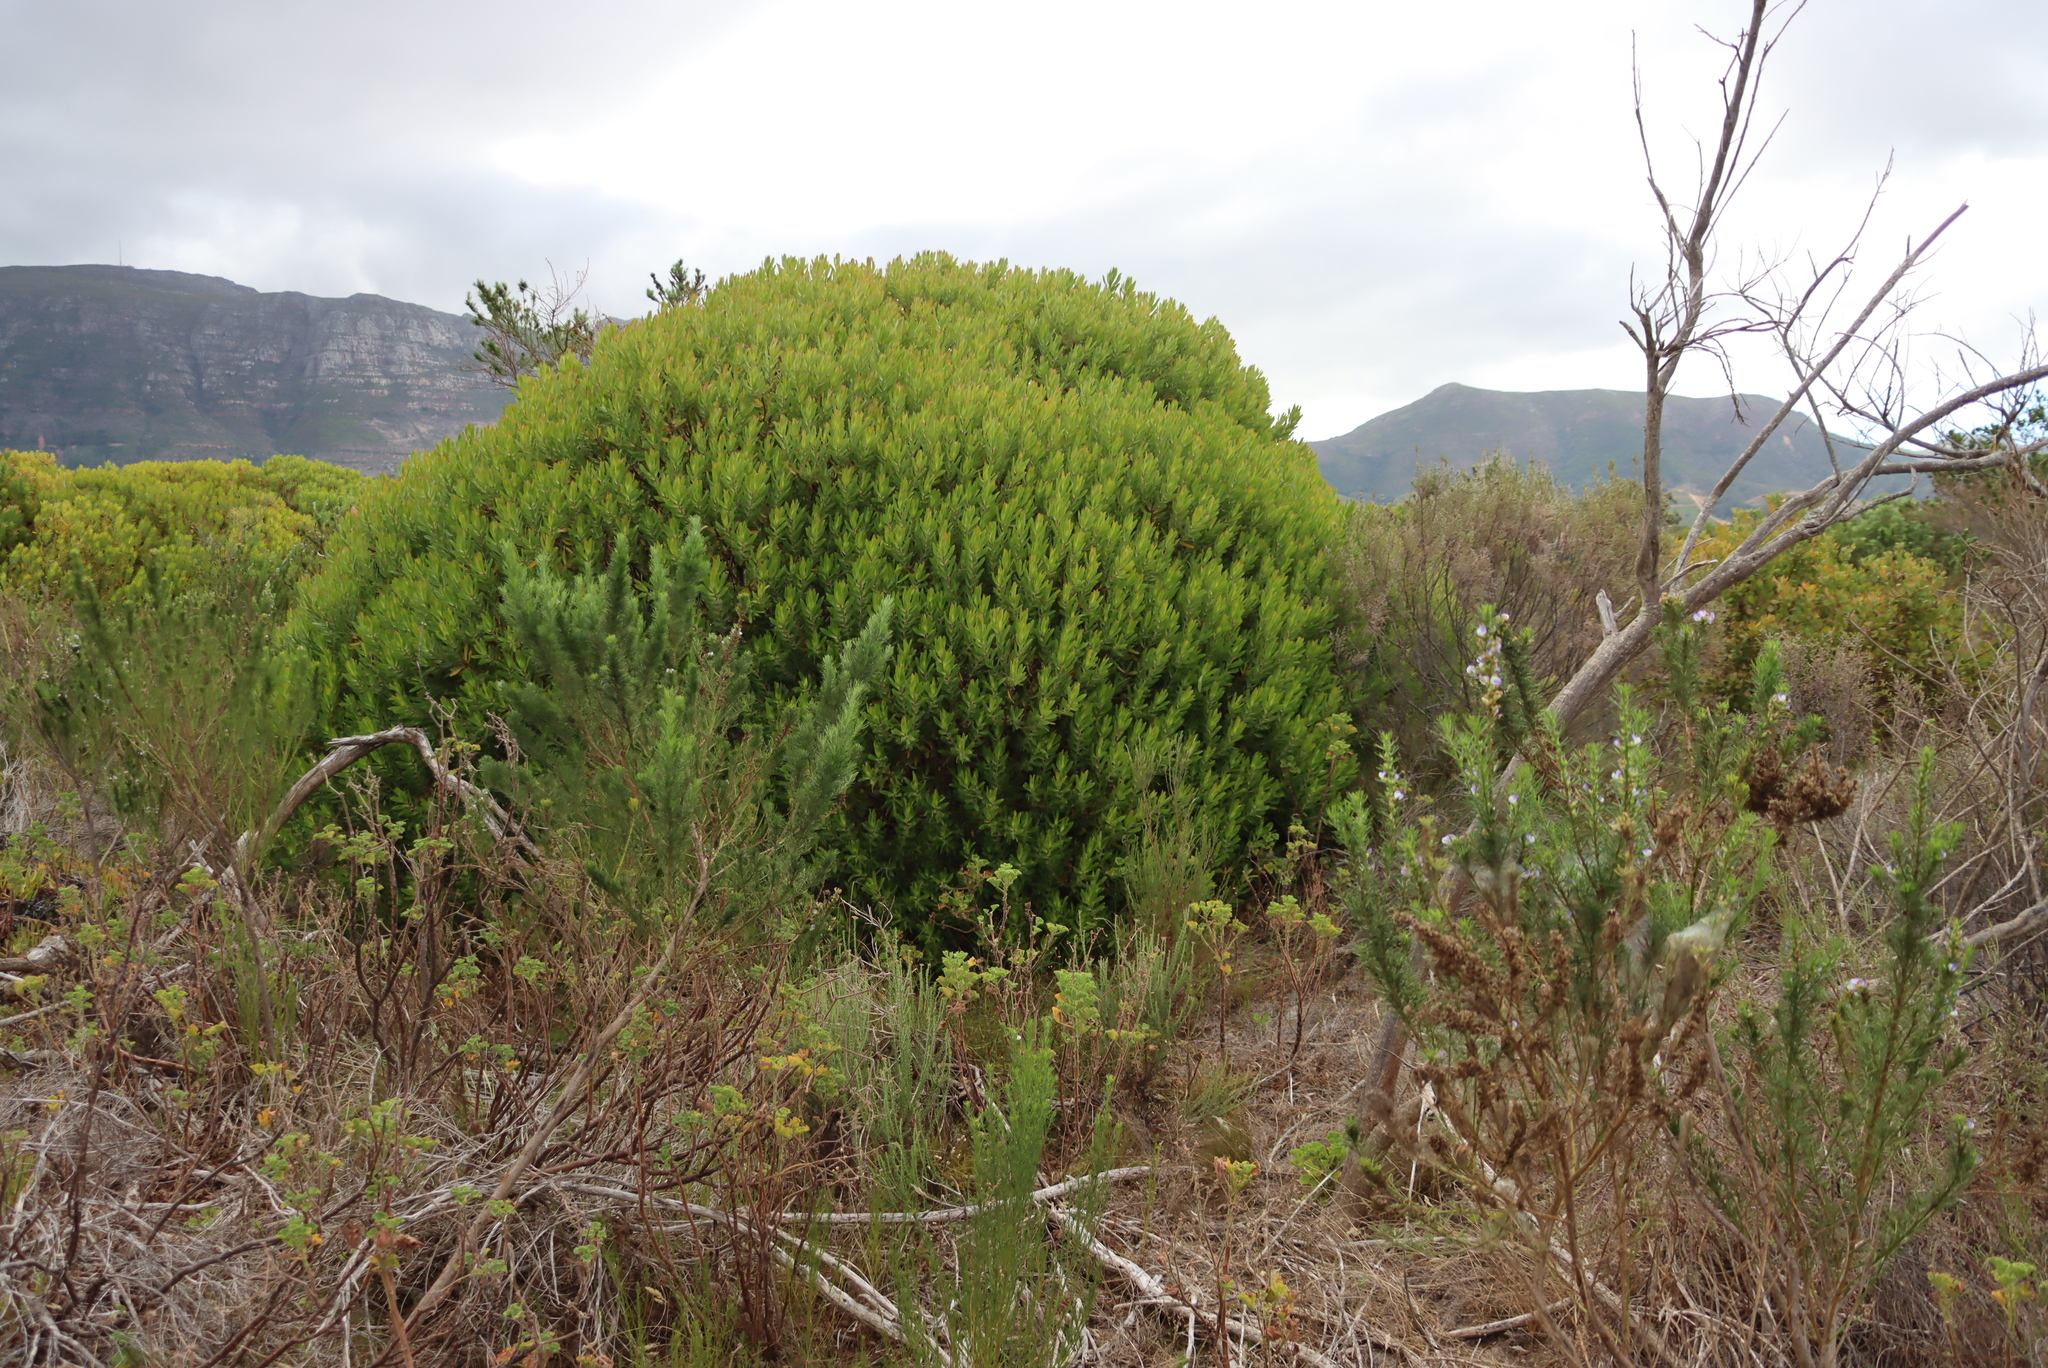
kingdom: Plantae
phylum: Tracheophyta
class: Magnoliopsida
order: Proteales
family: Proteaceae
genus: Leucadendron
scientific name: Leucadendron laureolum
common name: Golden sunshinebush
